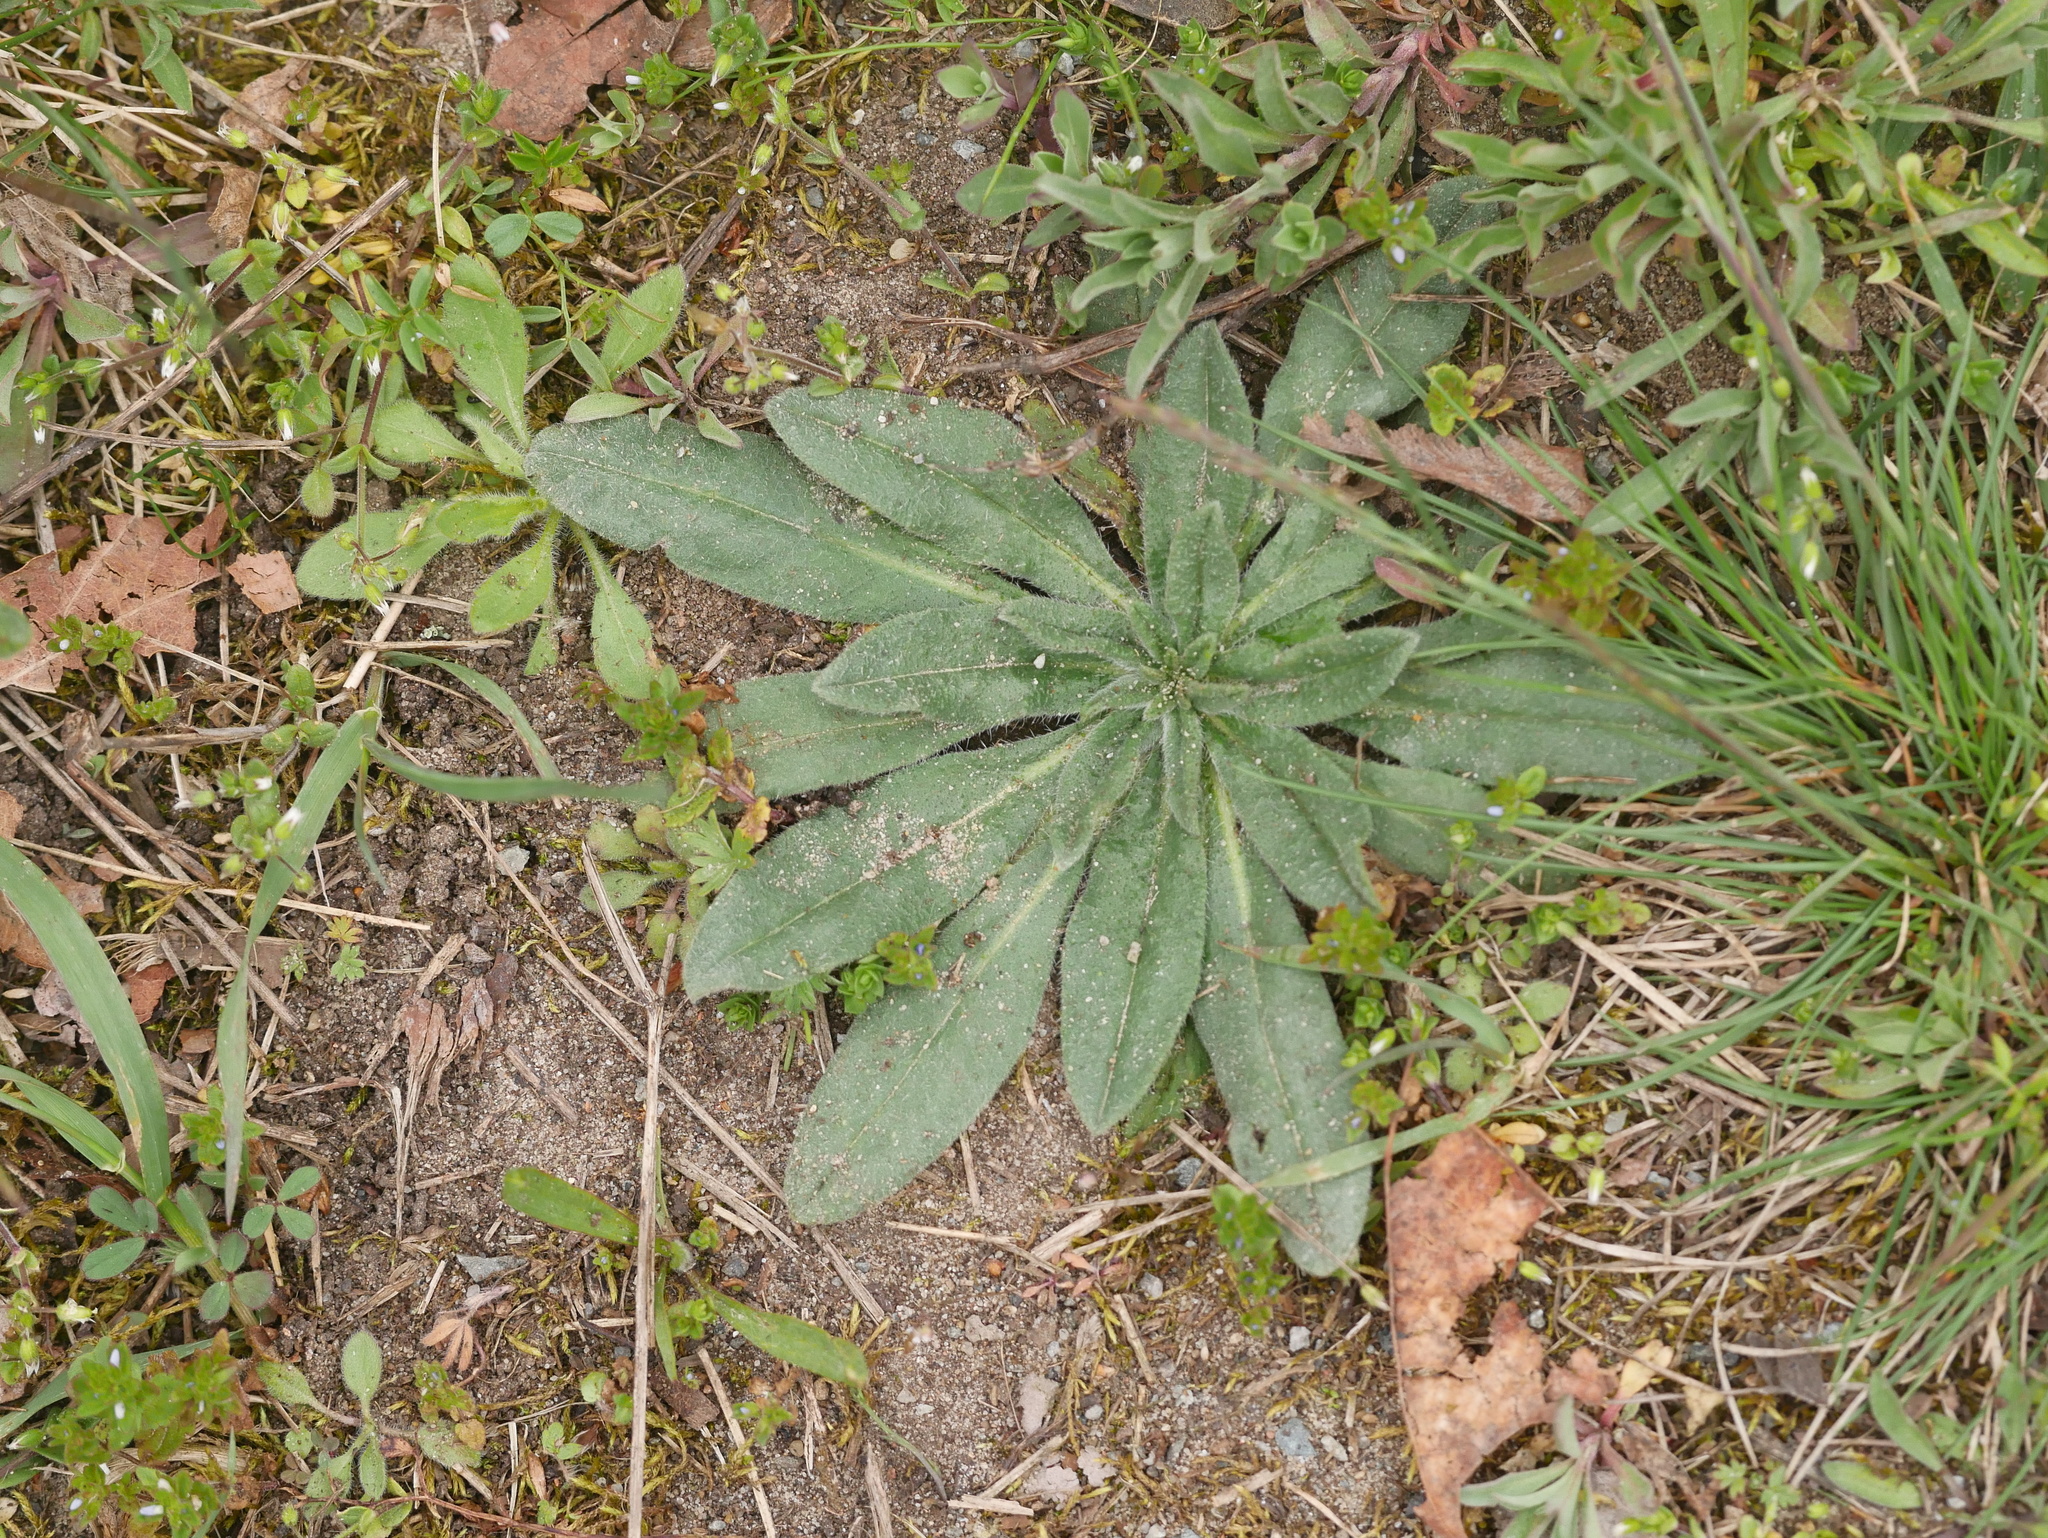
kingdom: Plantae
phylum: Tracheophyta
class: Magnoliopsida
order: Boraginales
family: Boraginaceae
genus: Echium
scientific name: Echium vulgare
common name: Common viper's bugloss
